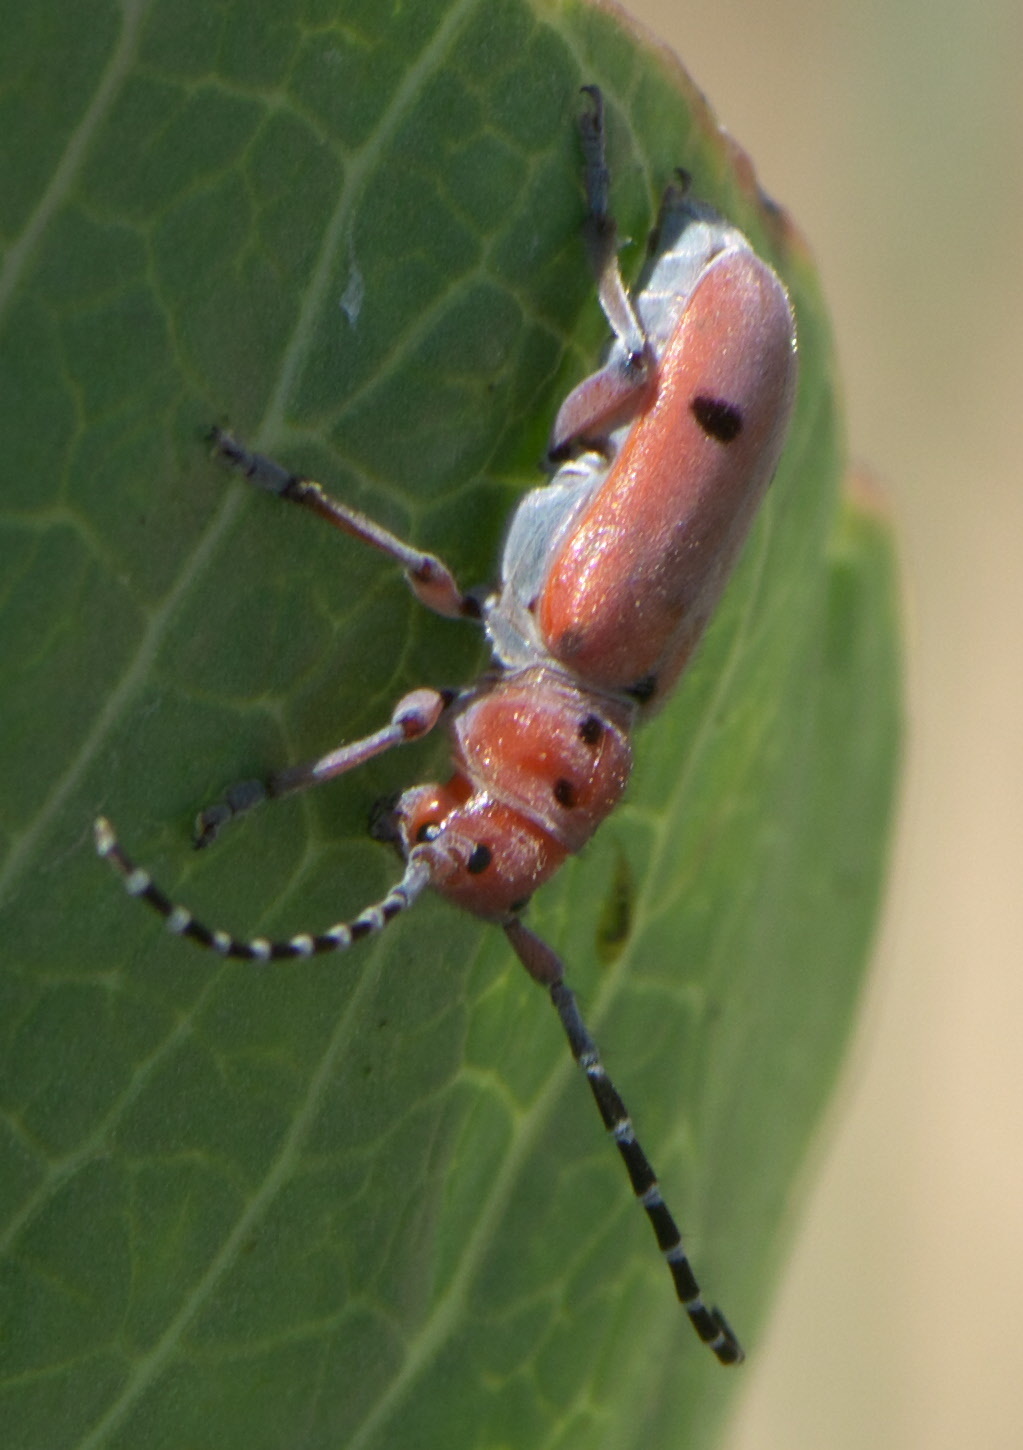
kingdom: Animalia
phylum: Arthropoda
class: Insecta
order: Coleoptera
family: Cerambycidae
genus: Tetraopes
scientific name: Tetraopes femoratus
